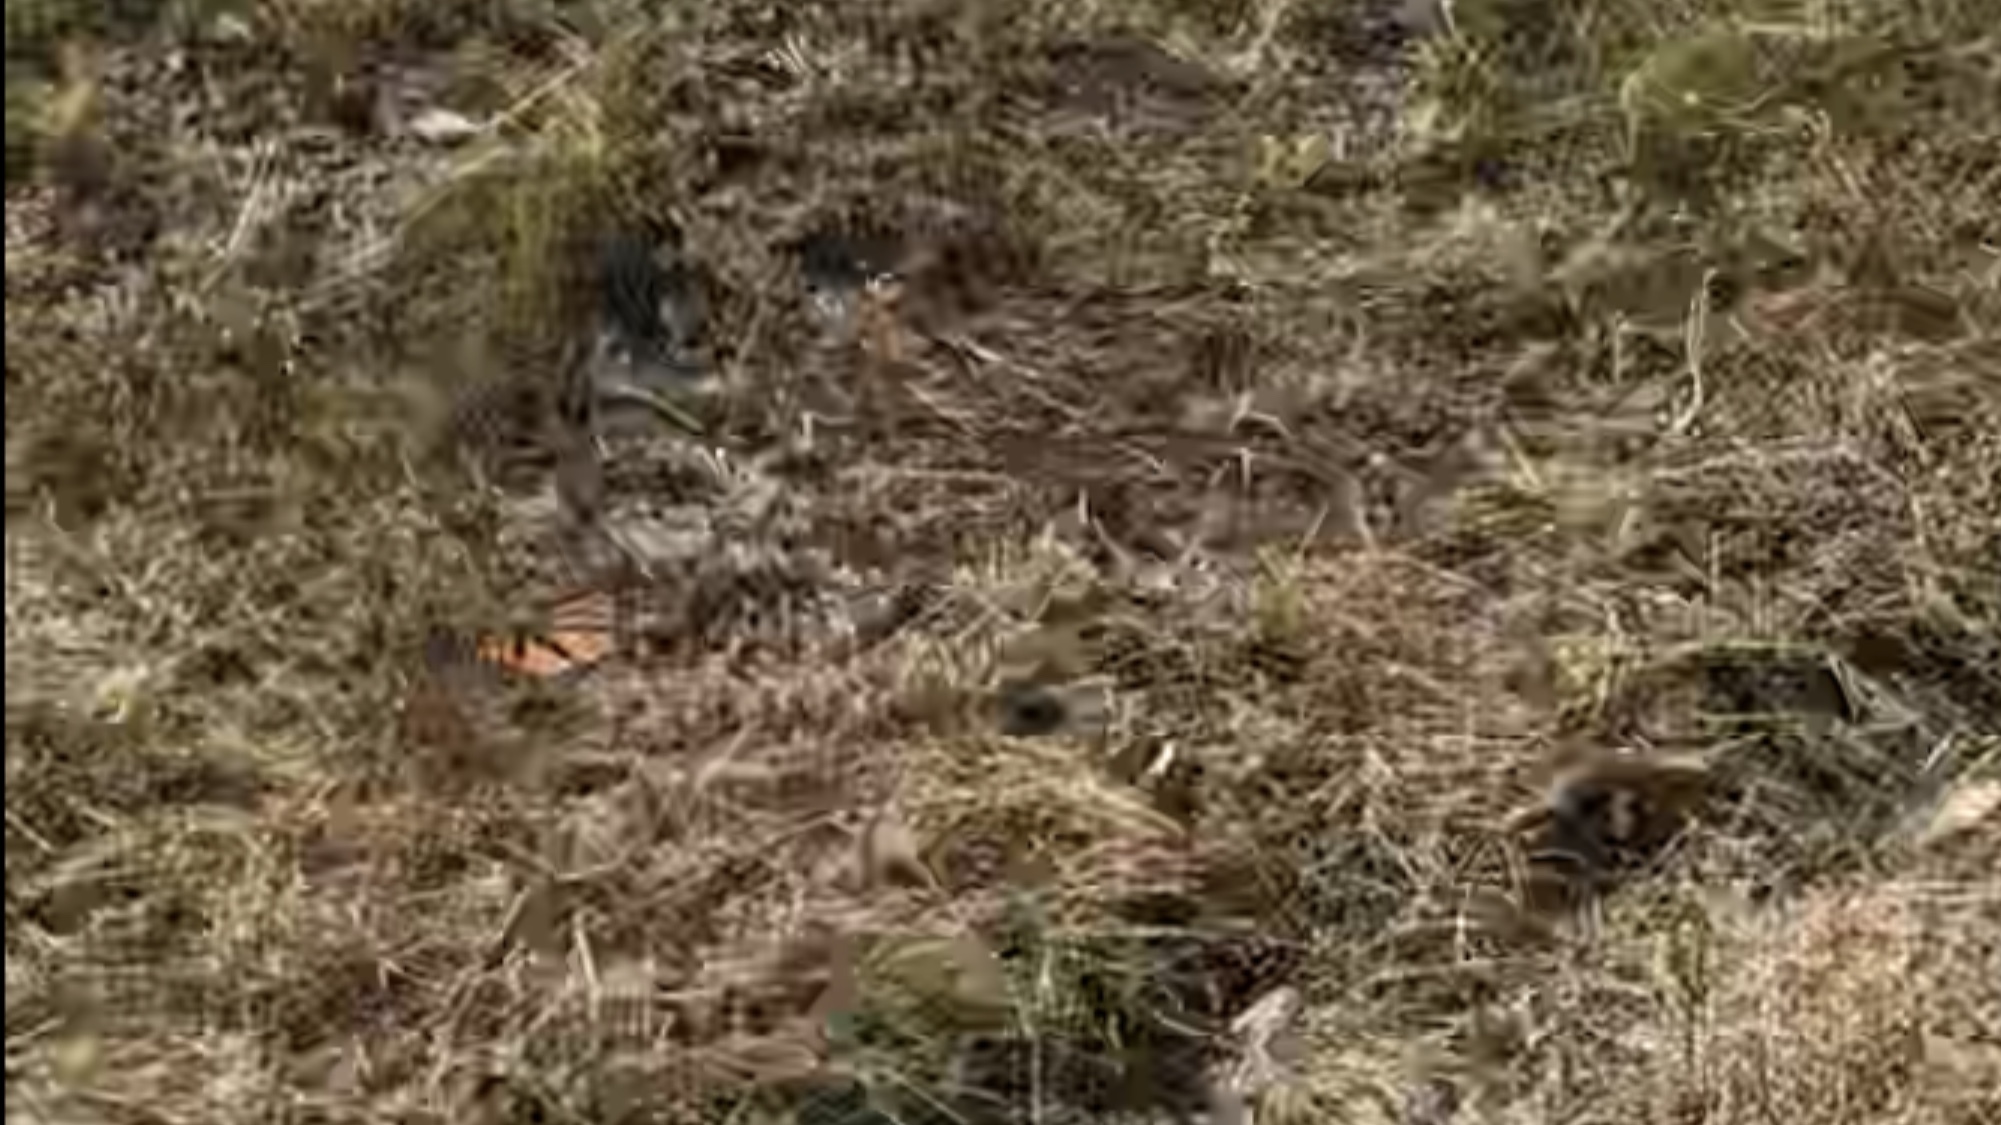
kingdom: Animalia
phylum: Arthropoda
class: Insecta
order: Lepidoptera
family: Nymphalidae
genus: Danaus
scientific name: Danaus plexippus
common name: Monarch
